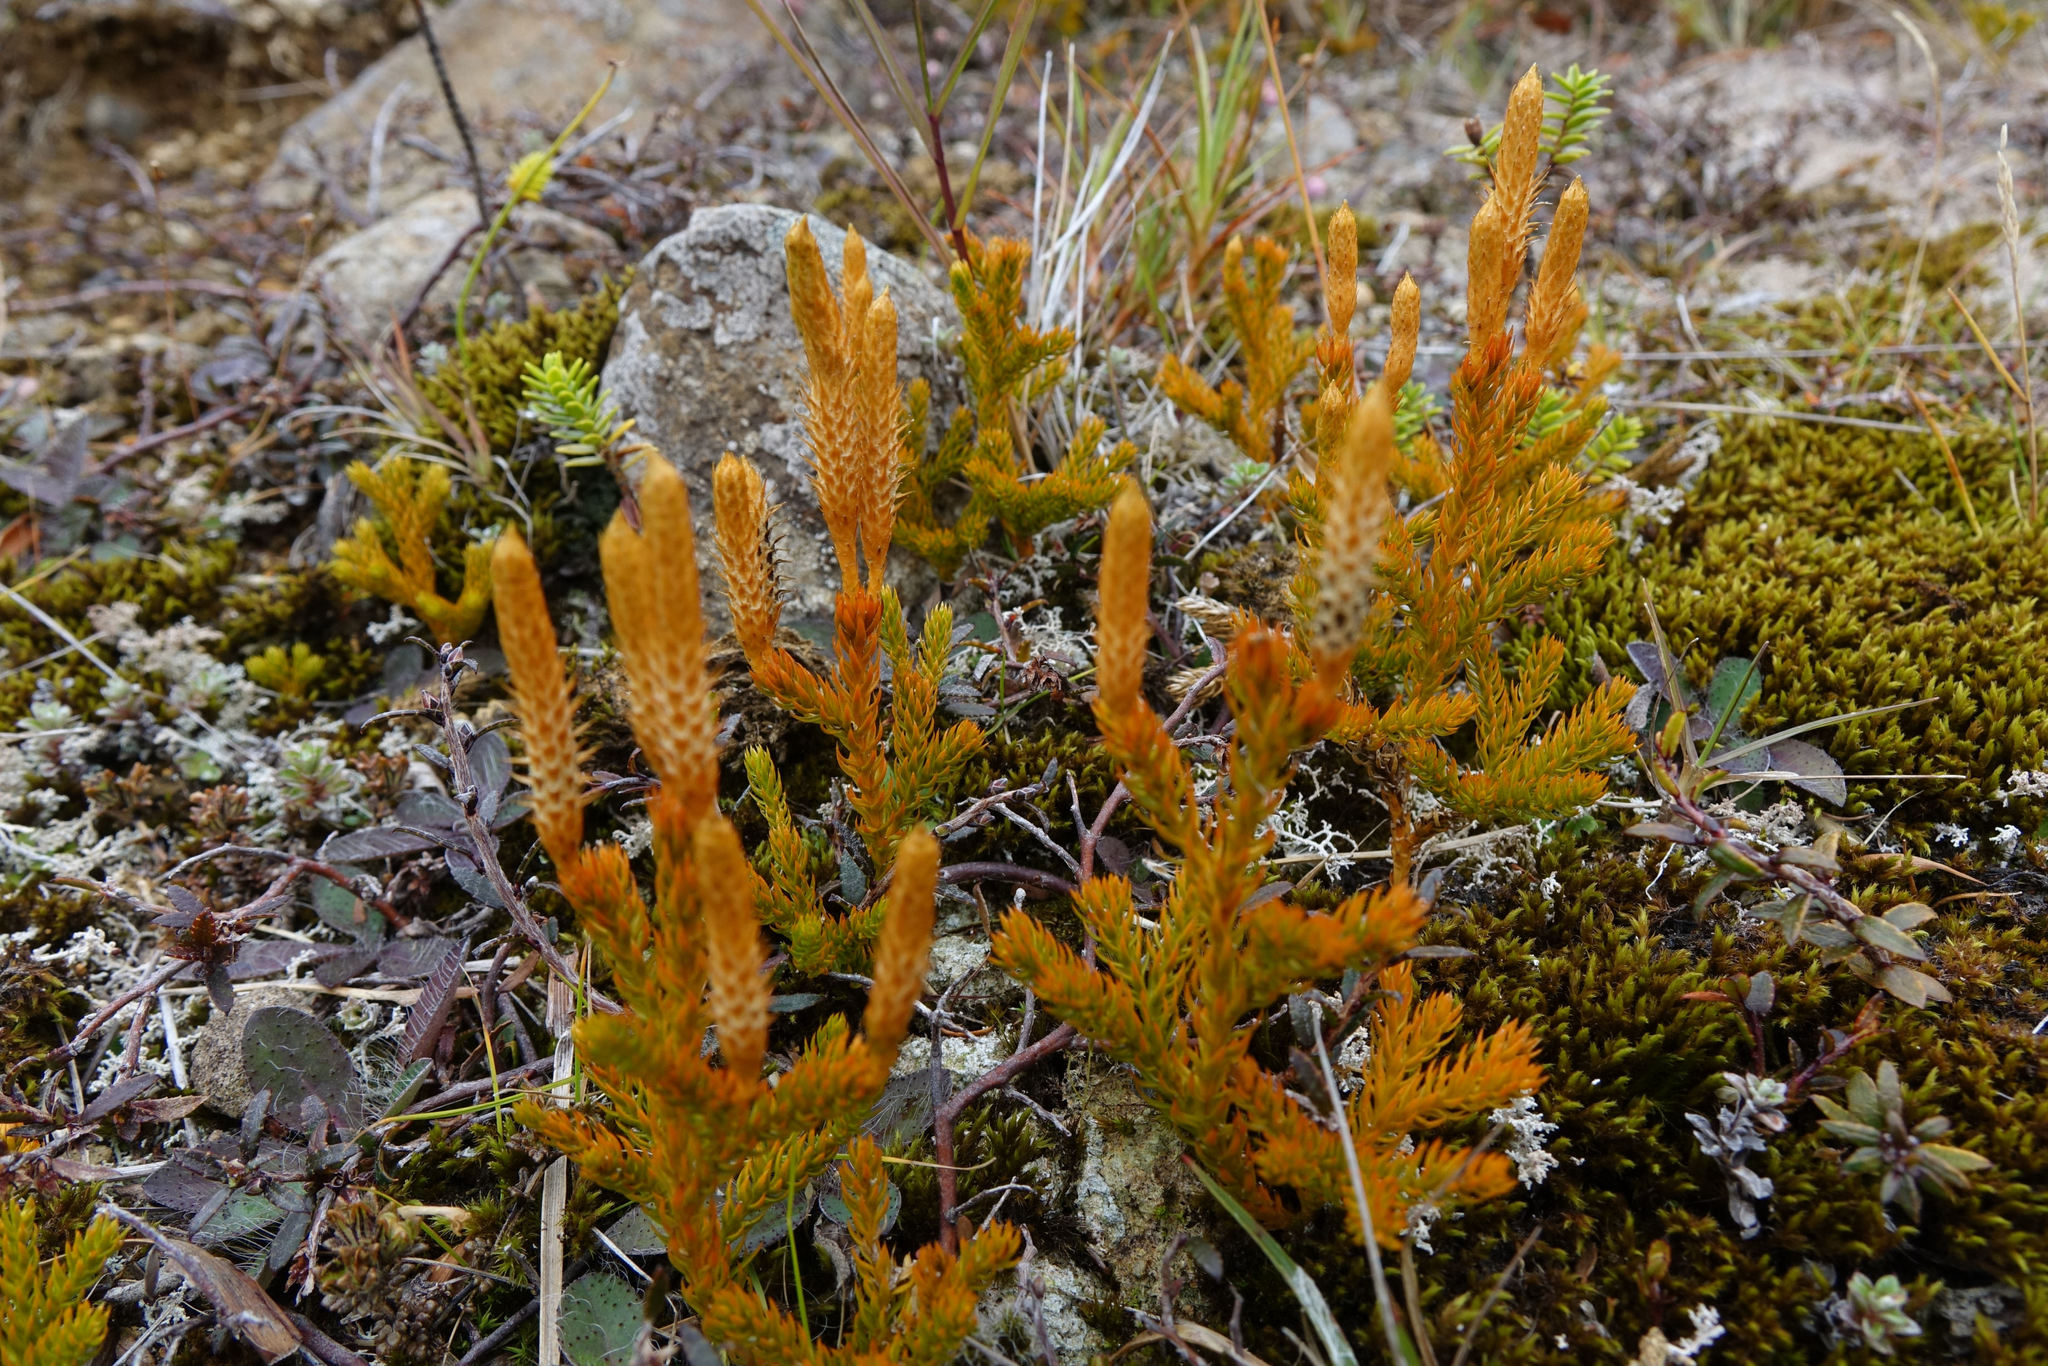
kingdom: Plantae
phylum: Tracheophyta
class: Lycopodiopsida
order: Lycopodiales
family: Lycopodiaceae
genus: Austrolycopodium
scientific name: Austrolycopodium fastigiatum
